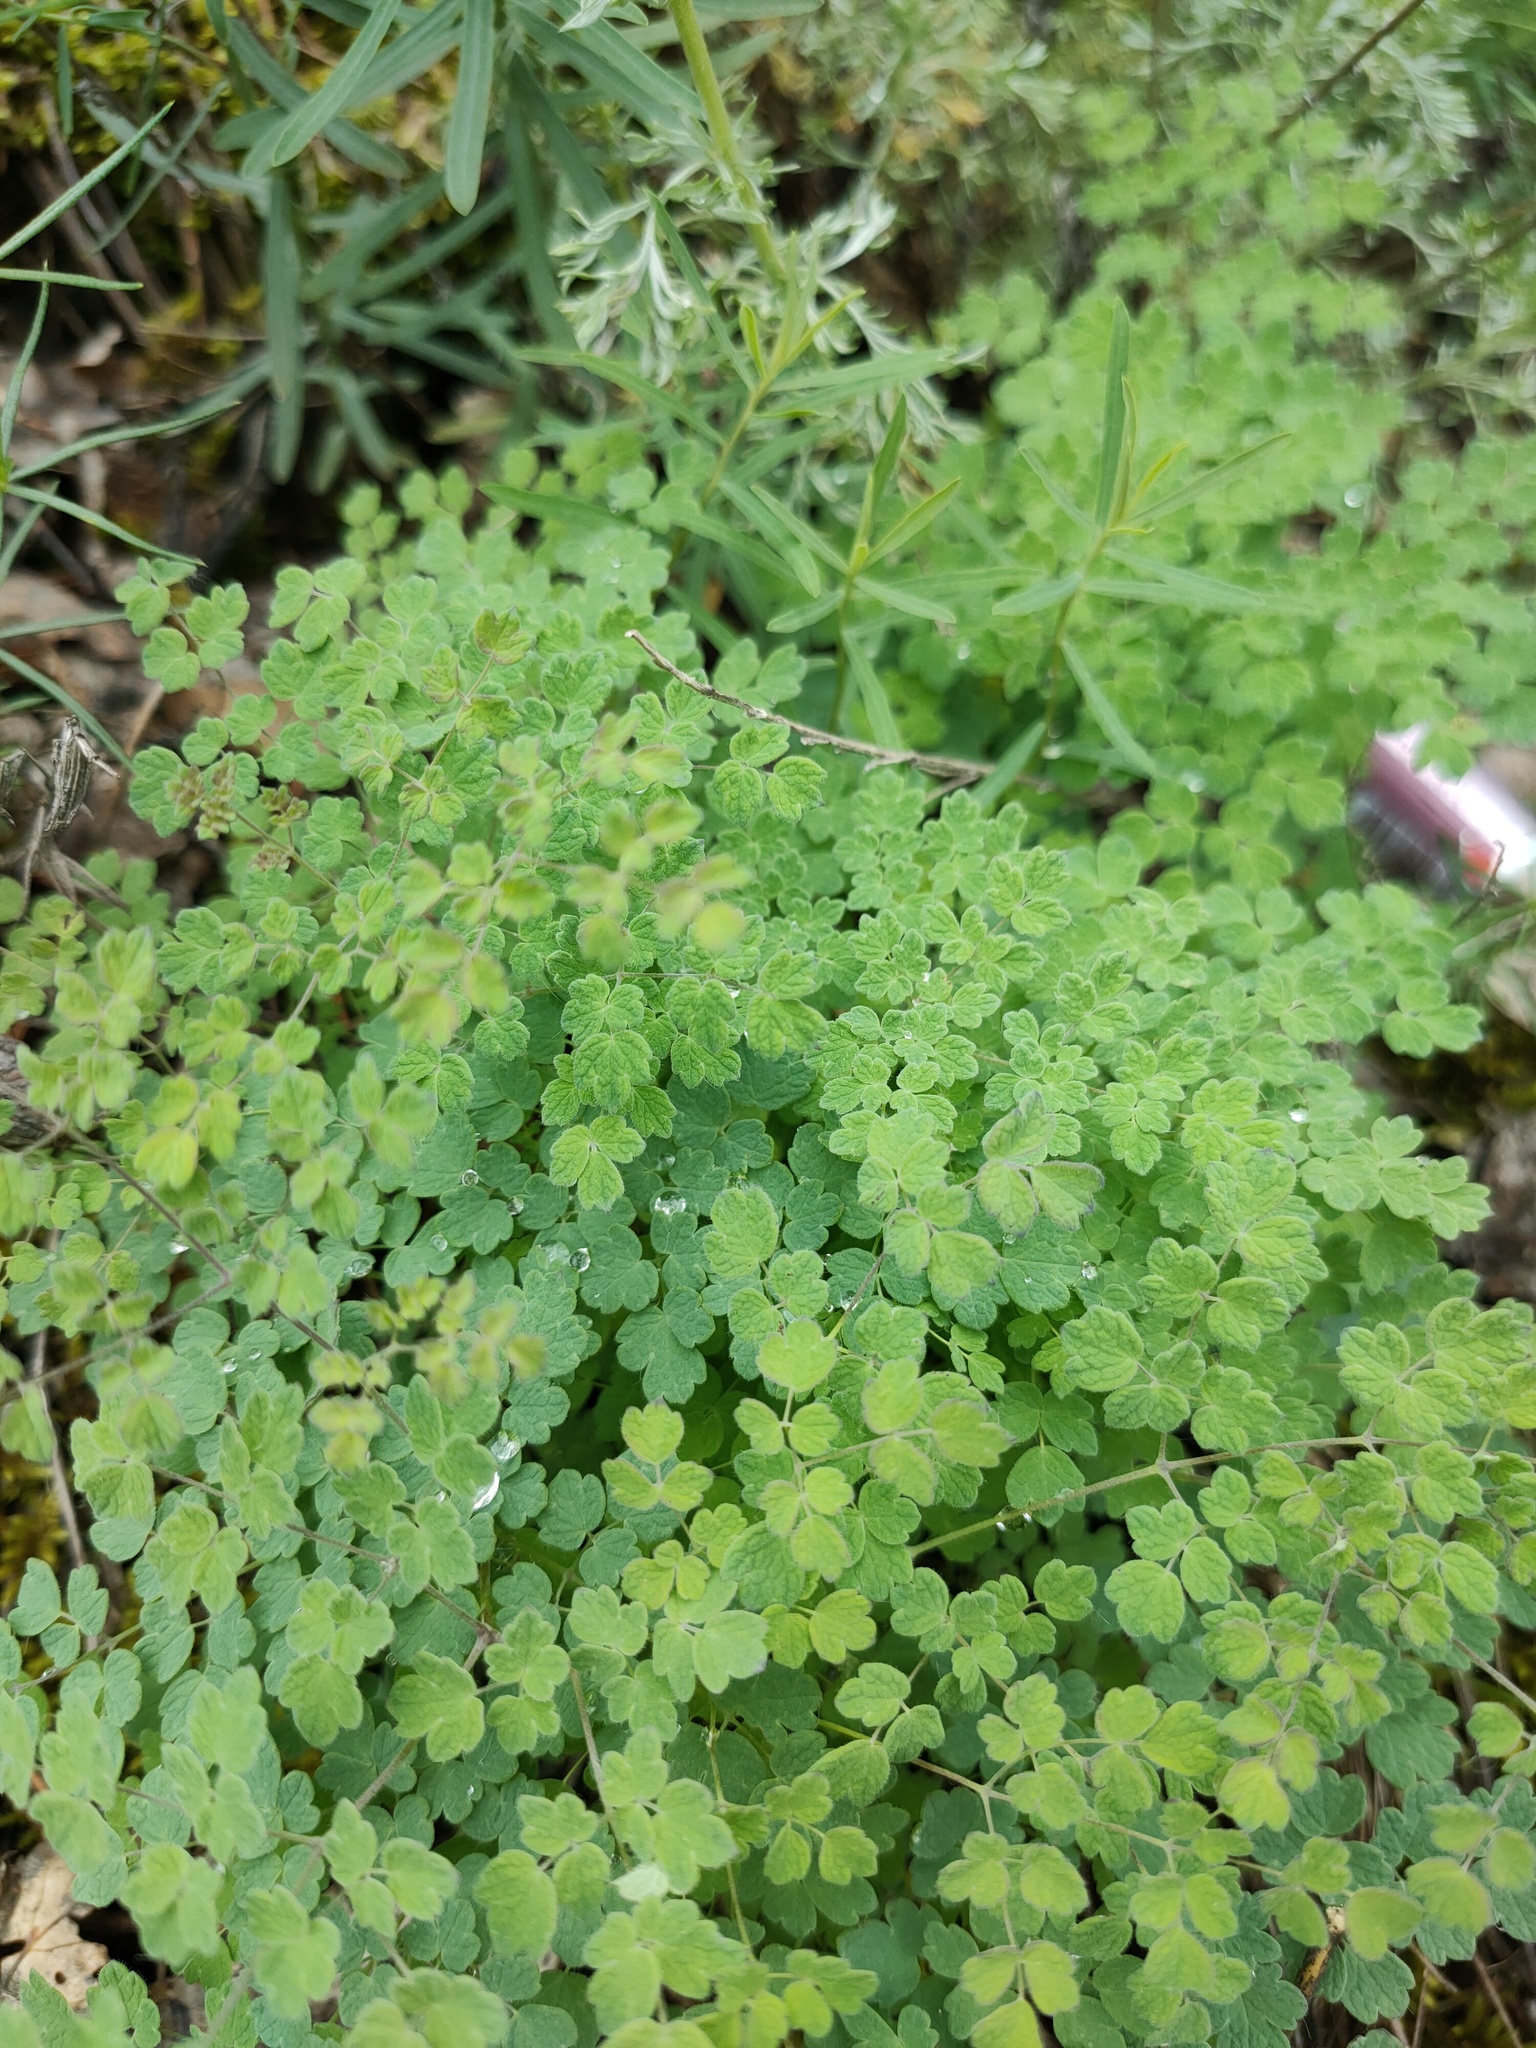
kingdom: Plantae
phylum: Tracheophyta
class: Magnoliopsida
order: Ranunculales
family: Ranunculaceae
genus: Thalictrum
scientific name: Thalictrum foetidum
